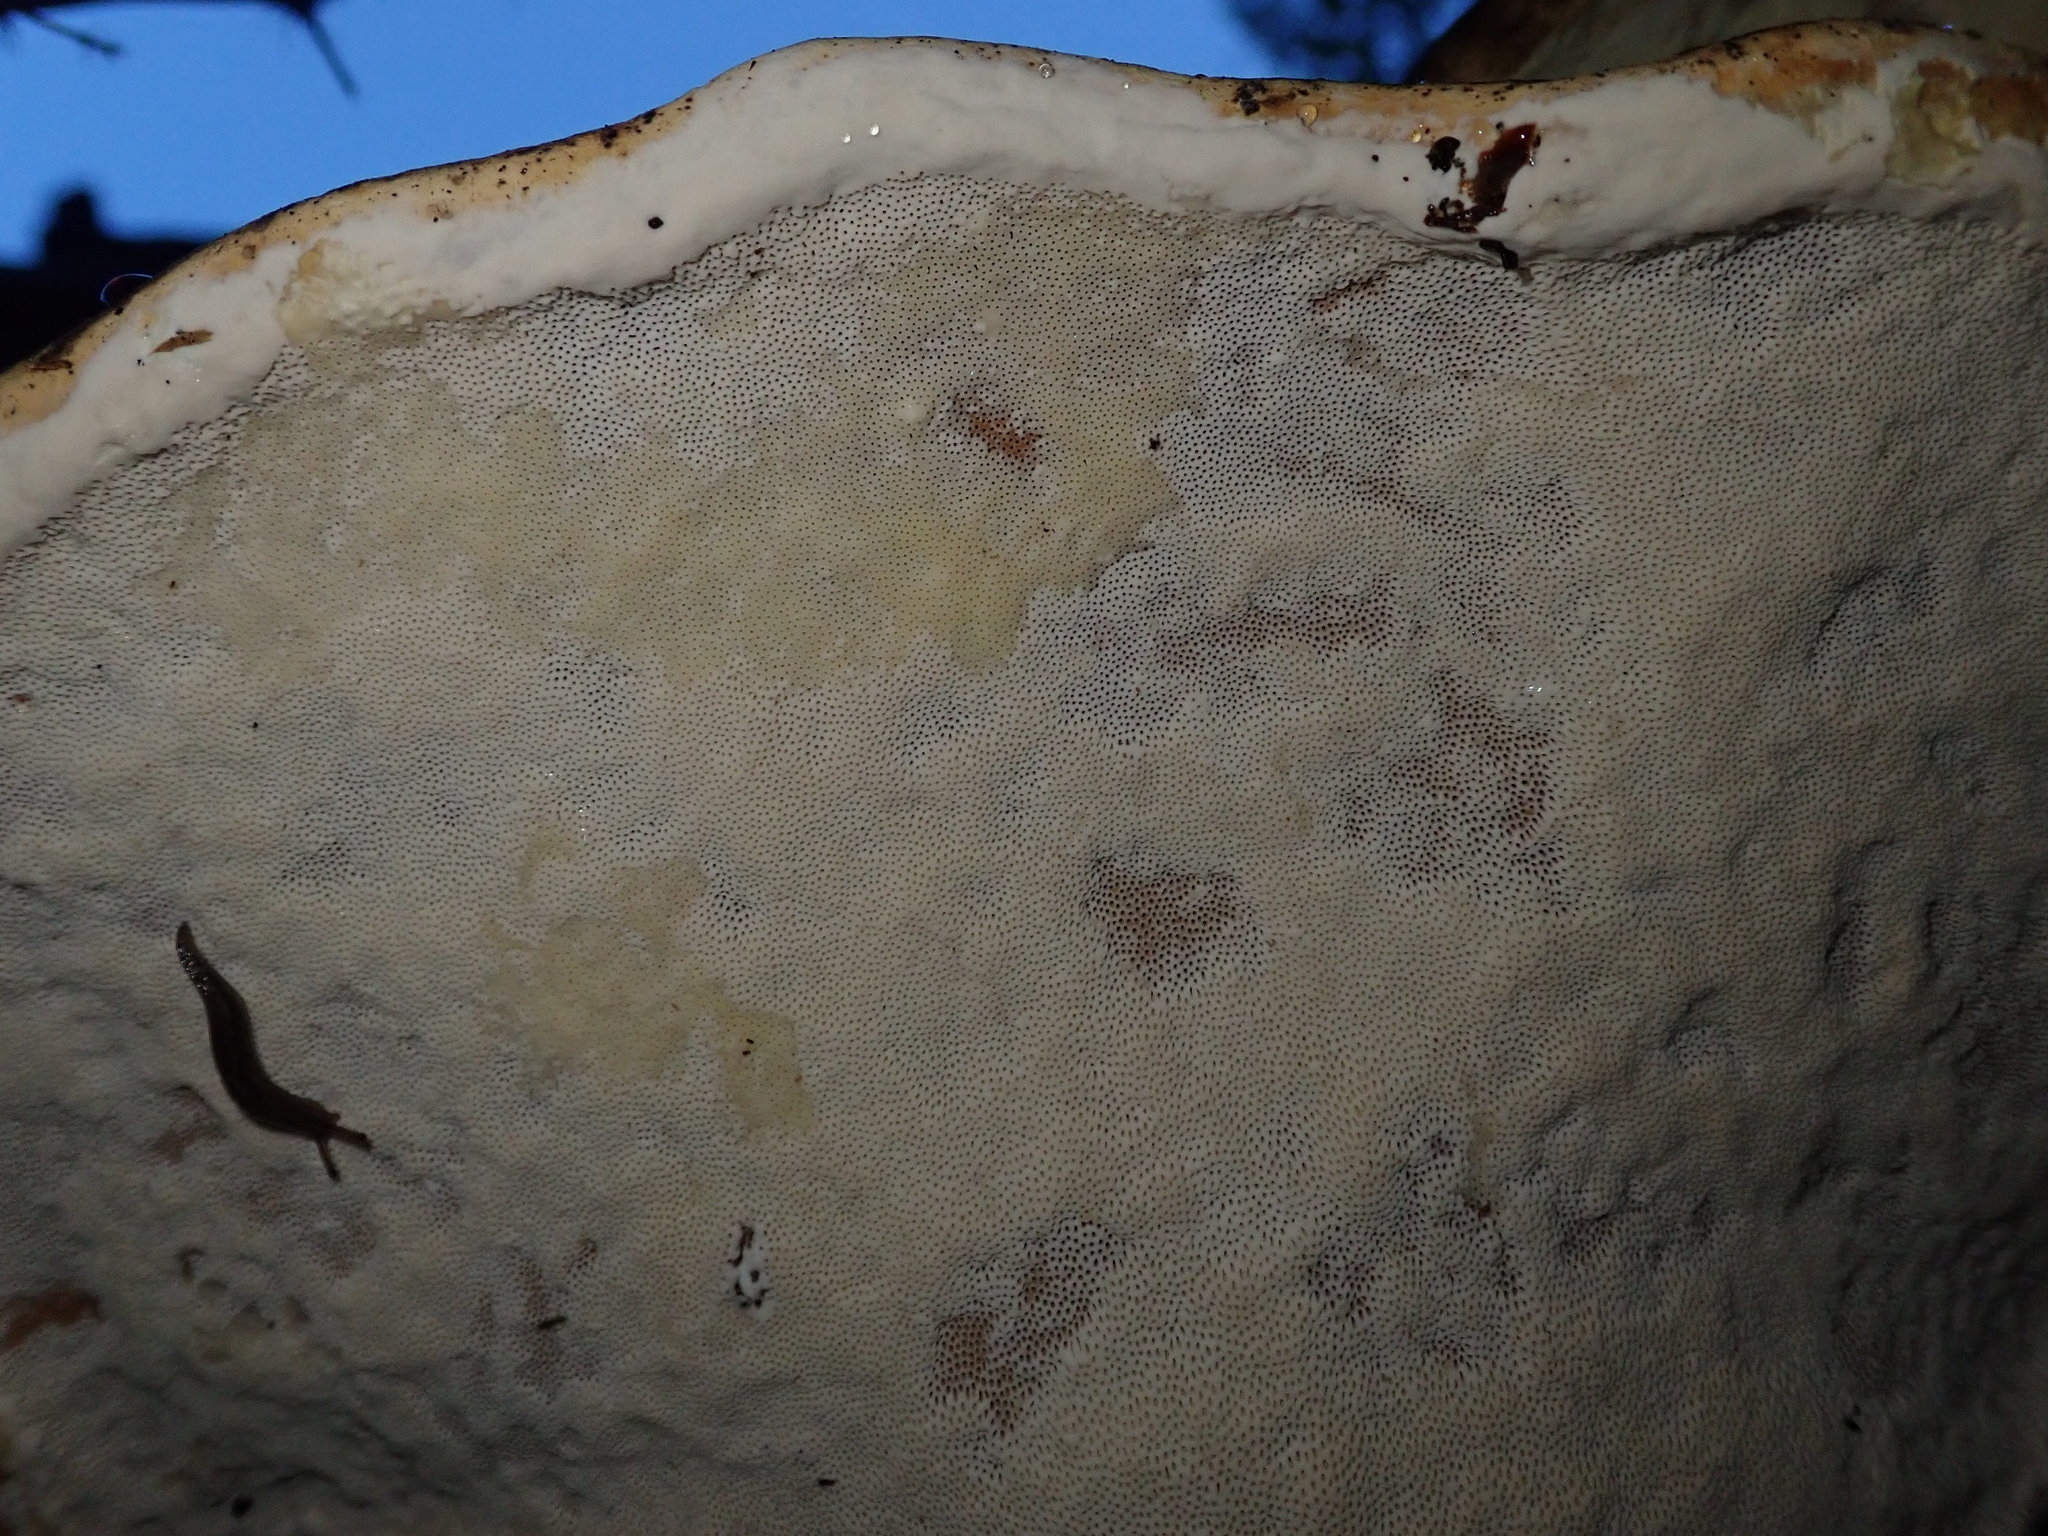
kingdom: Fungi
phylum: Basidiomycota
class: Agaricomycetes
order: Polyporales
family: Fomitopsidaceae
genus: Fomitopsis
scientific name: Fomitopsis pinicola
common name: Red-belted bracket
